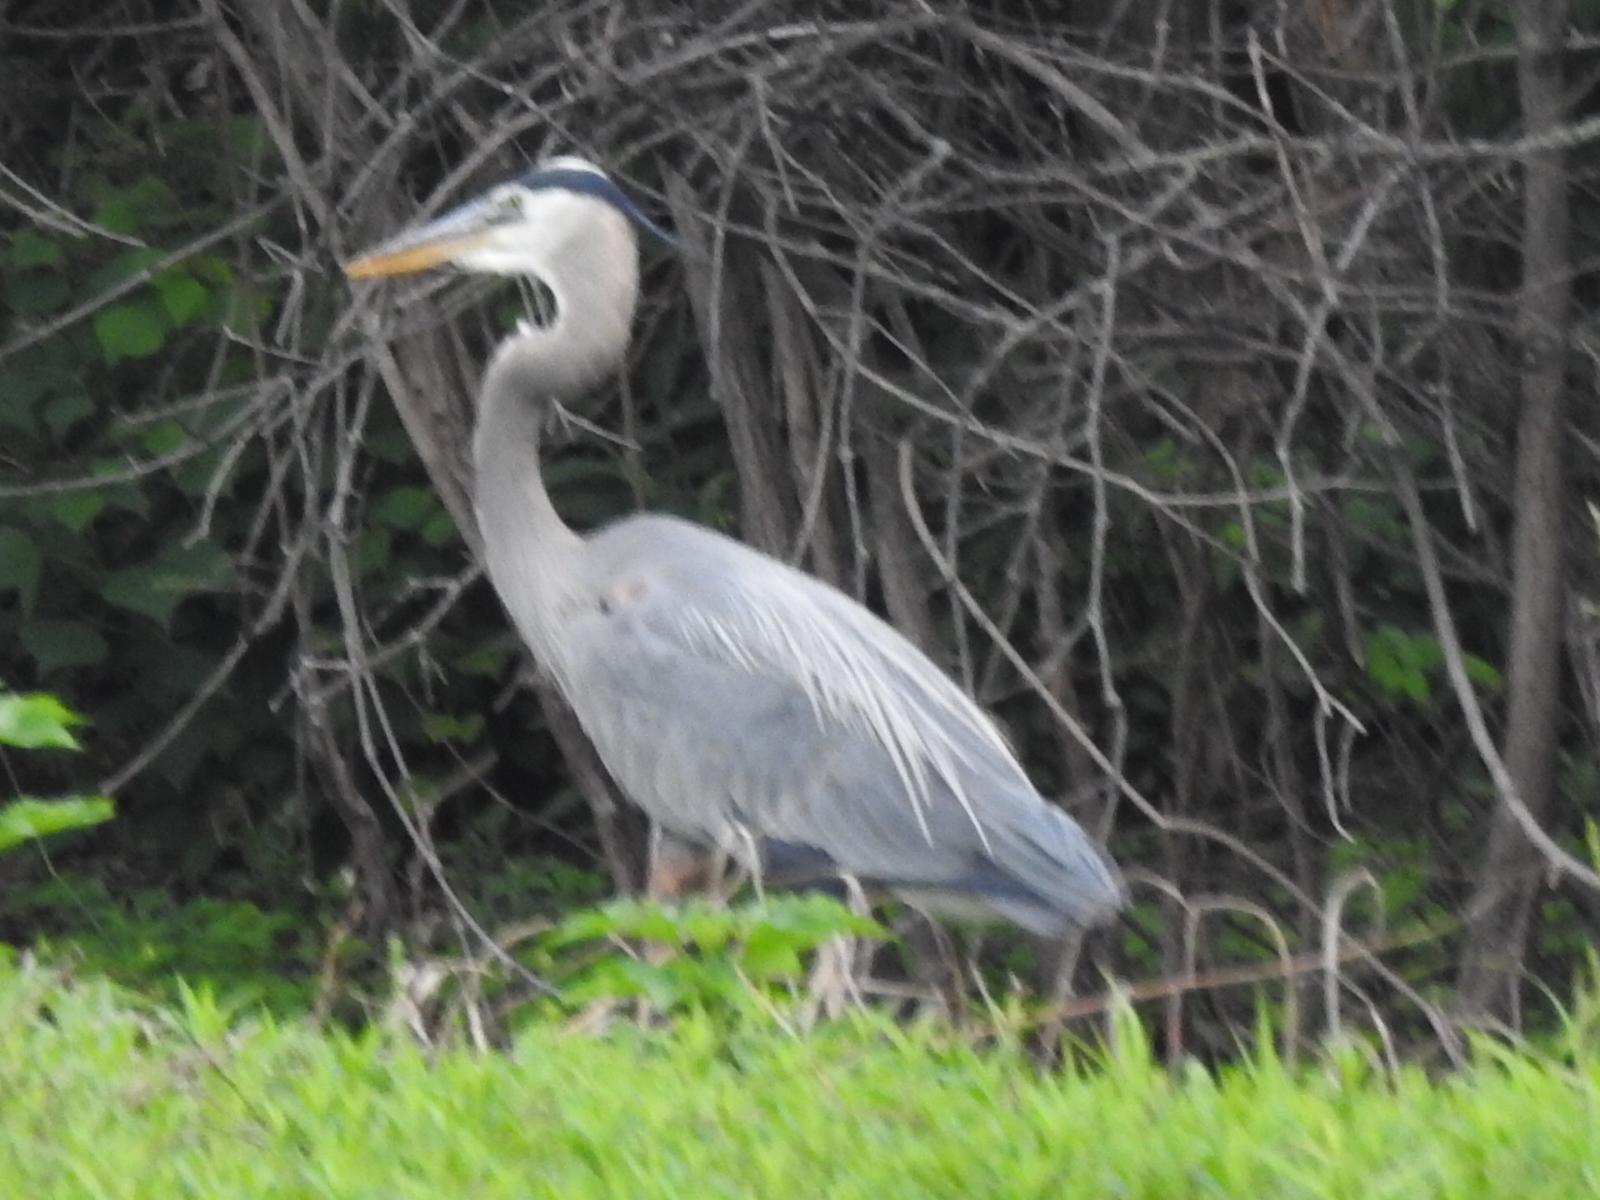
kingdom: Animalia
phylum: Chordata
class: Aves
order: Pelecaniformes
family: Ardeidae
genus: Ardea
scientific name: Ardea herodias
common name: Great blue heron
